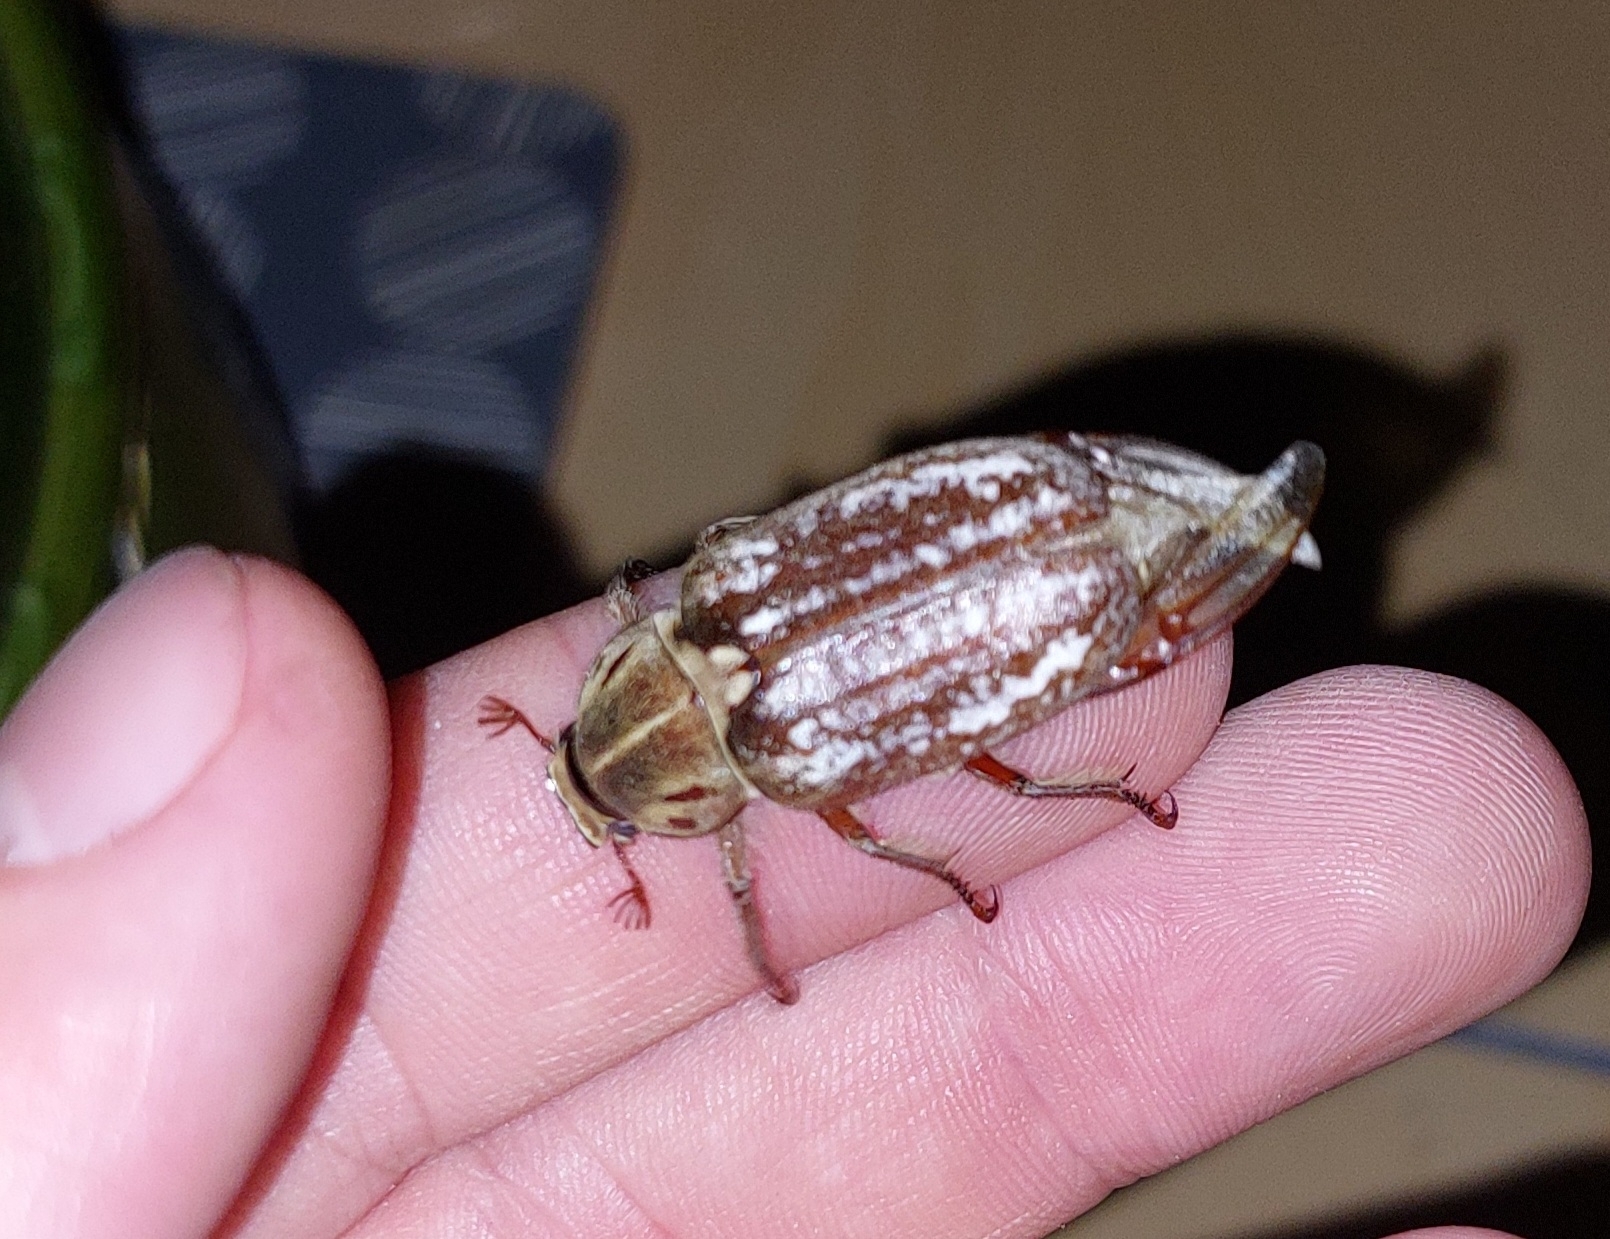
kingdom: Animalia
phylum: Arthropoda
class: Insecta
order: Coleoptera
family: Scarabaeidae
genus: Anoxia
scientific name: Anoxia orientalis
